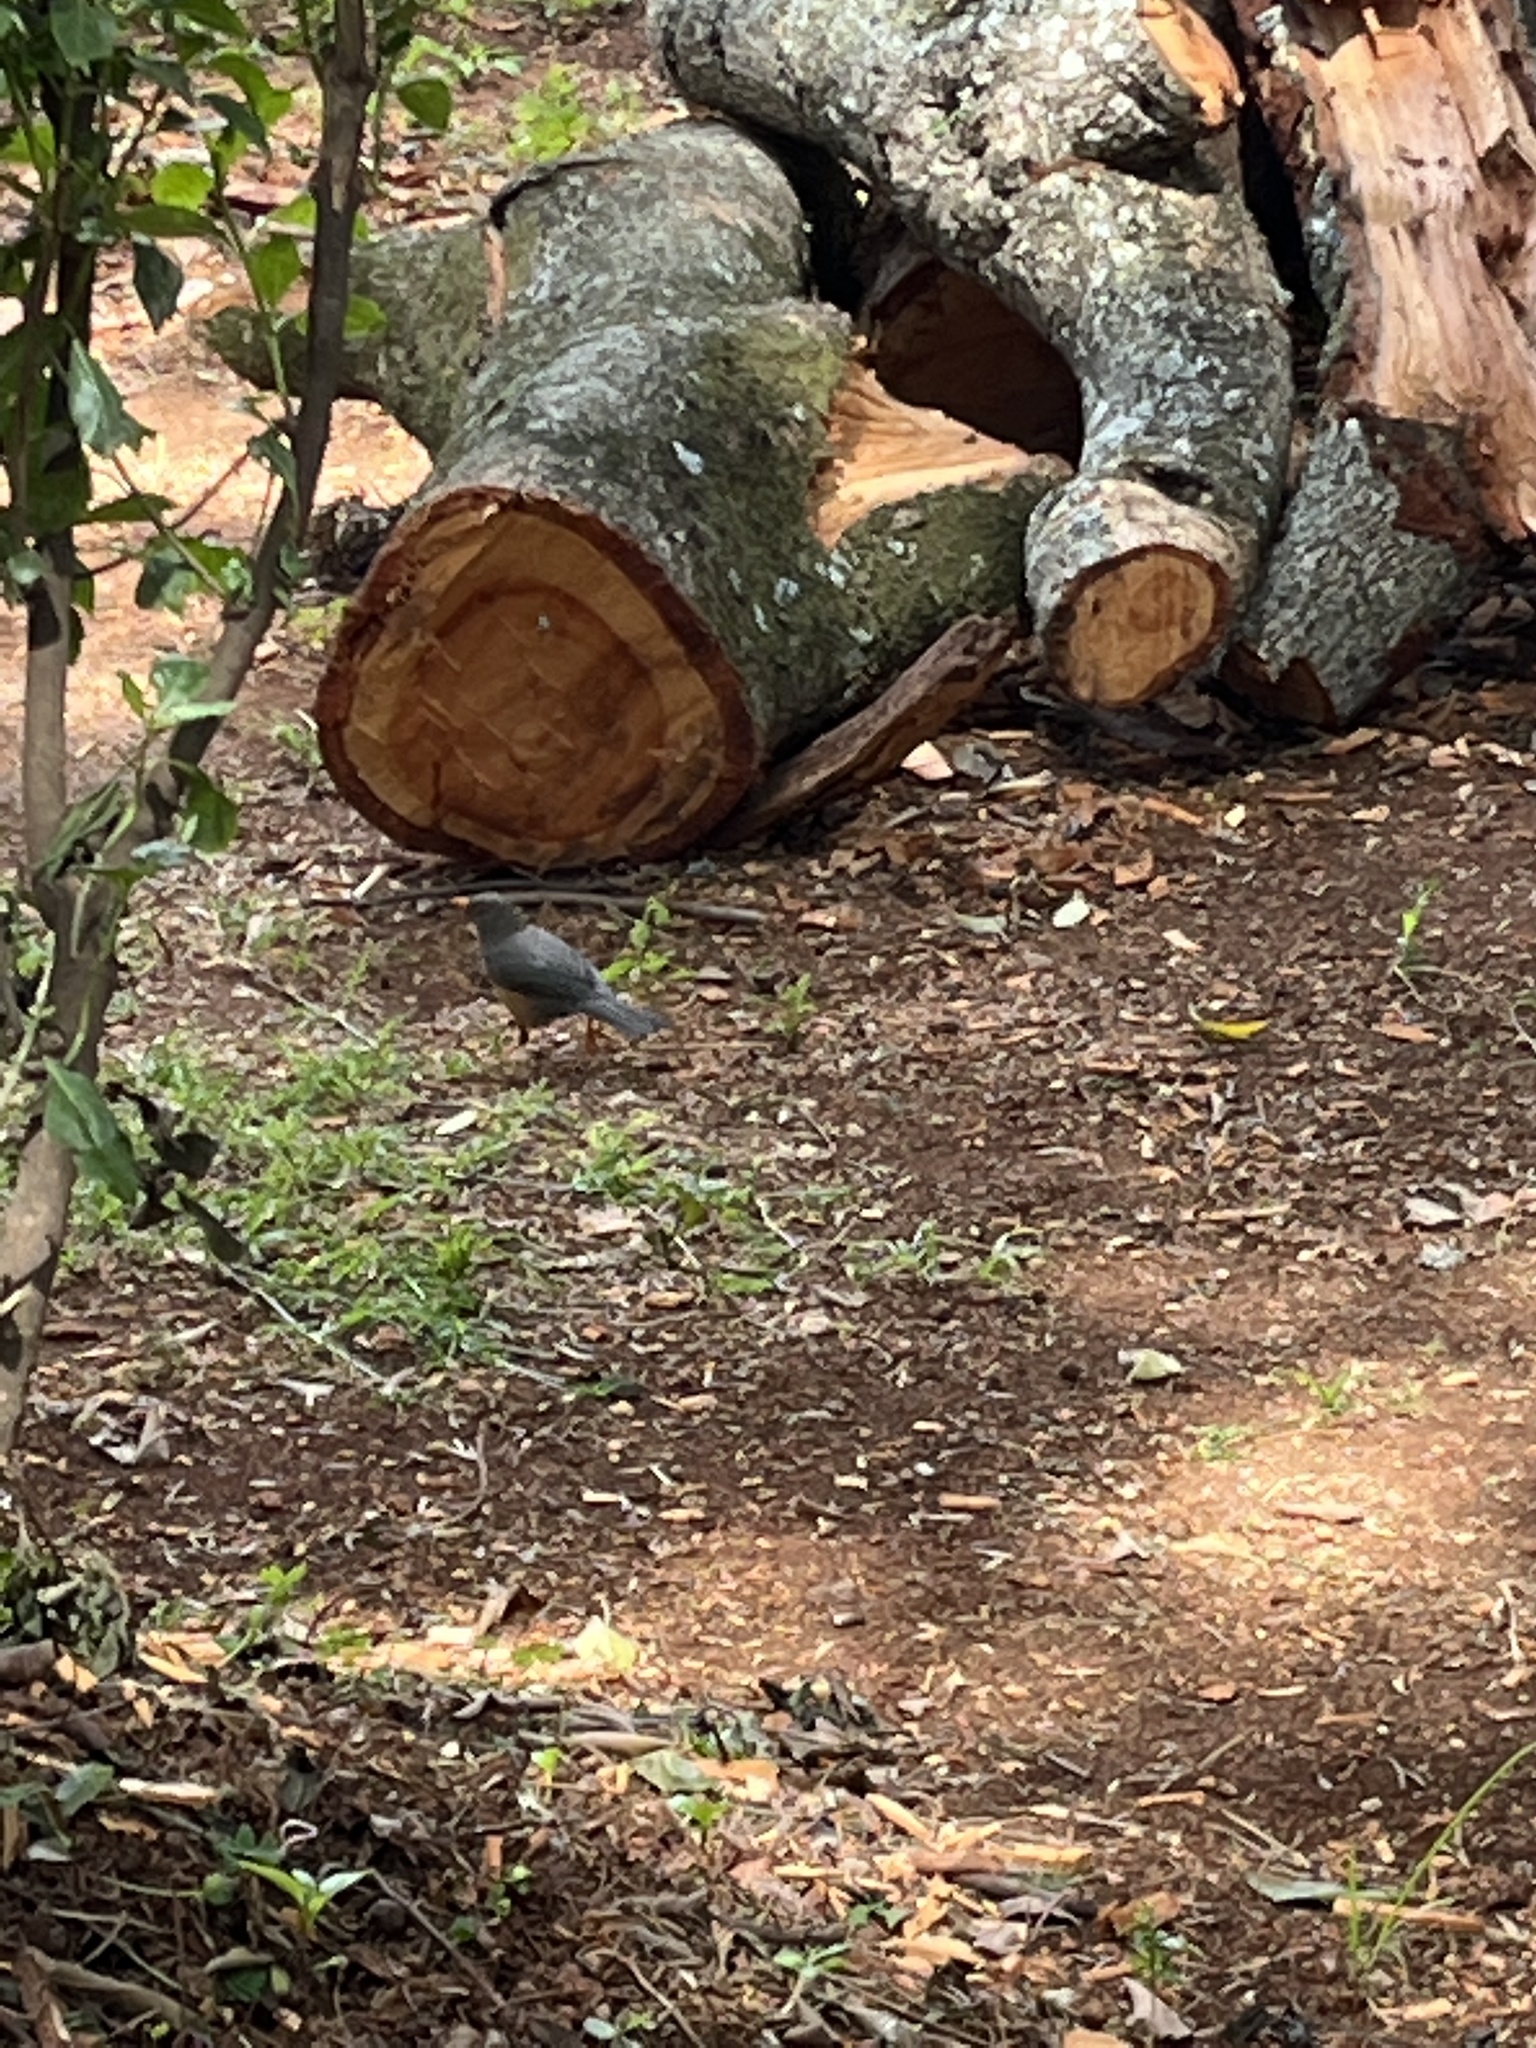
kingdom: Animalia
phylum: Chordata
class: Aves
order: Passeriformes
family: Turdidae
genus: Turdus
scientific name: Turdus abyssinicus
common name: Abyssinian thrush
